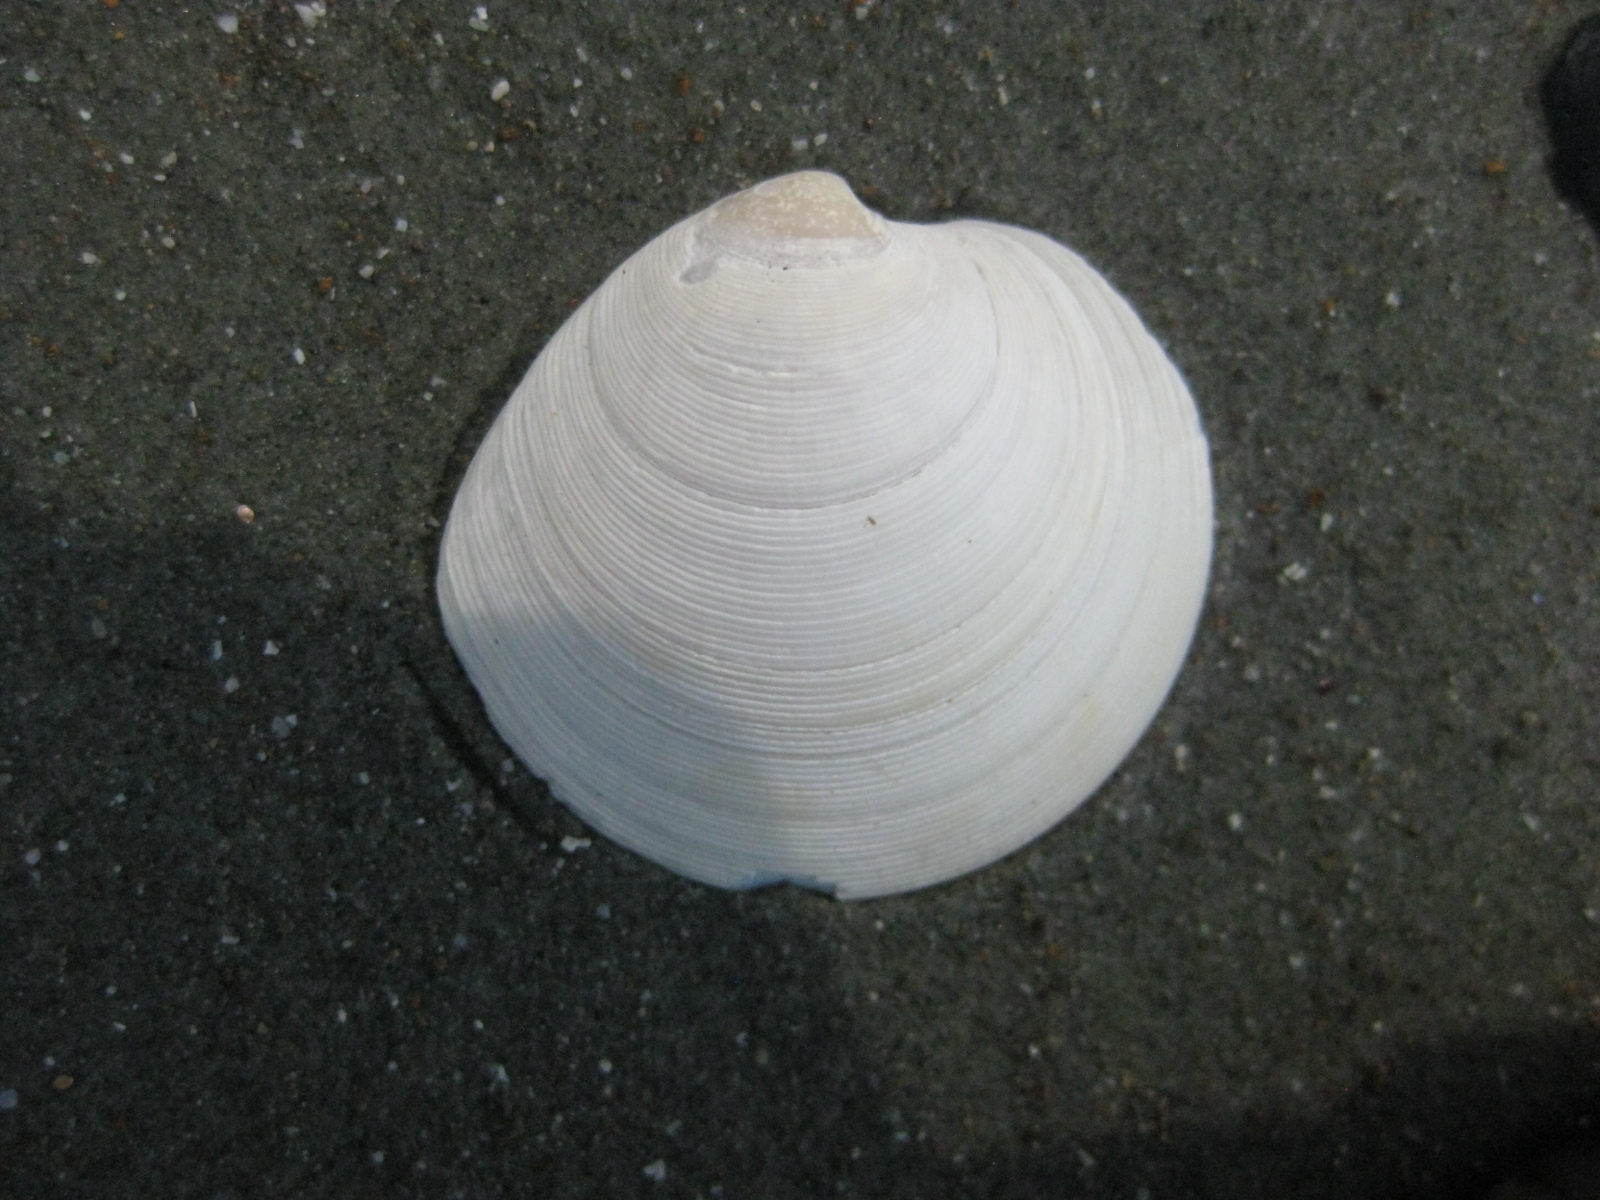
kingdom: Animalia
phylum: Mollusca
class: Bivalvia
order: Venerida
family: Veneridae
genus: Dosinia
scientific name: Dosinia subrosea
